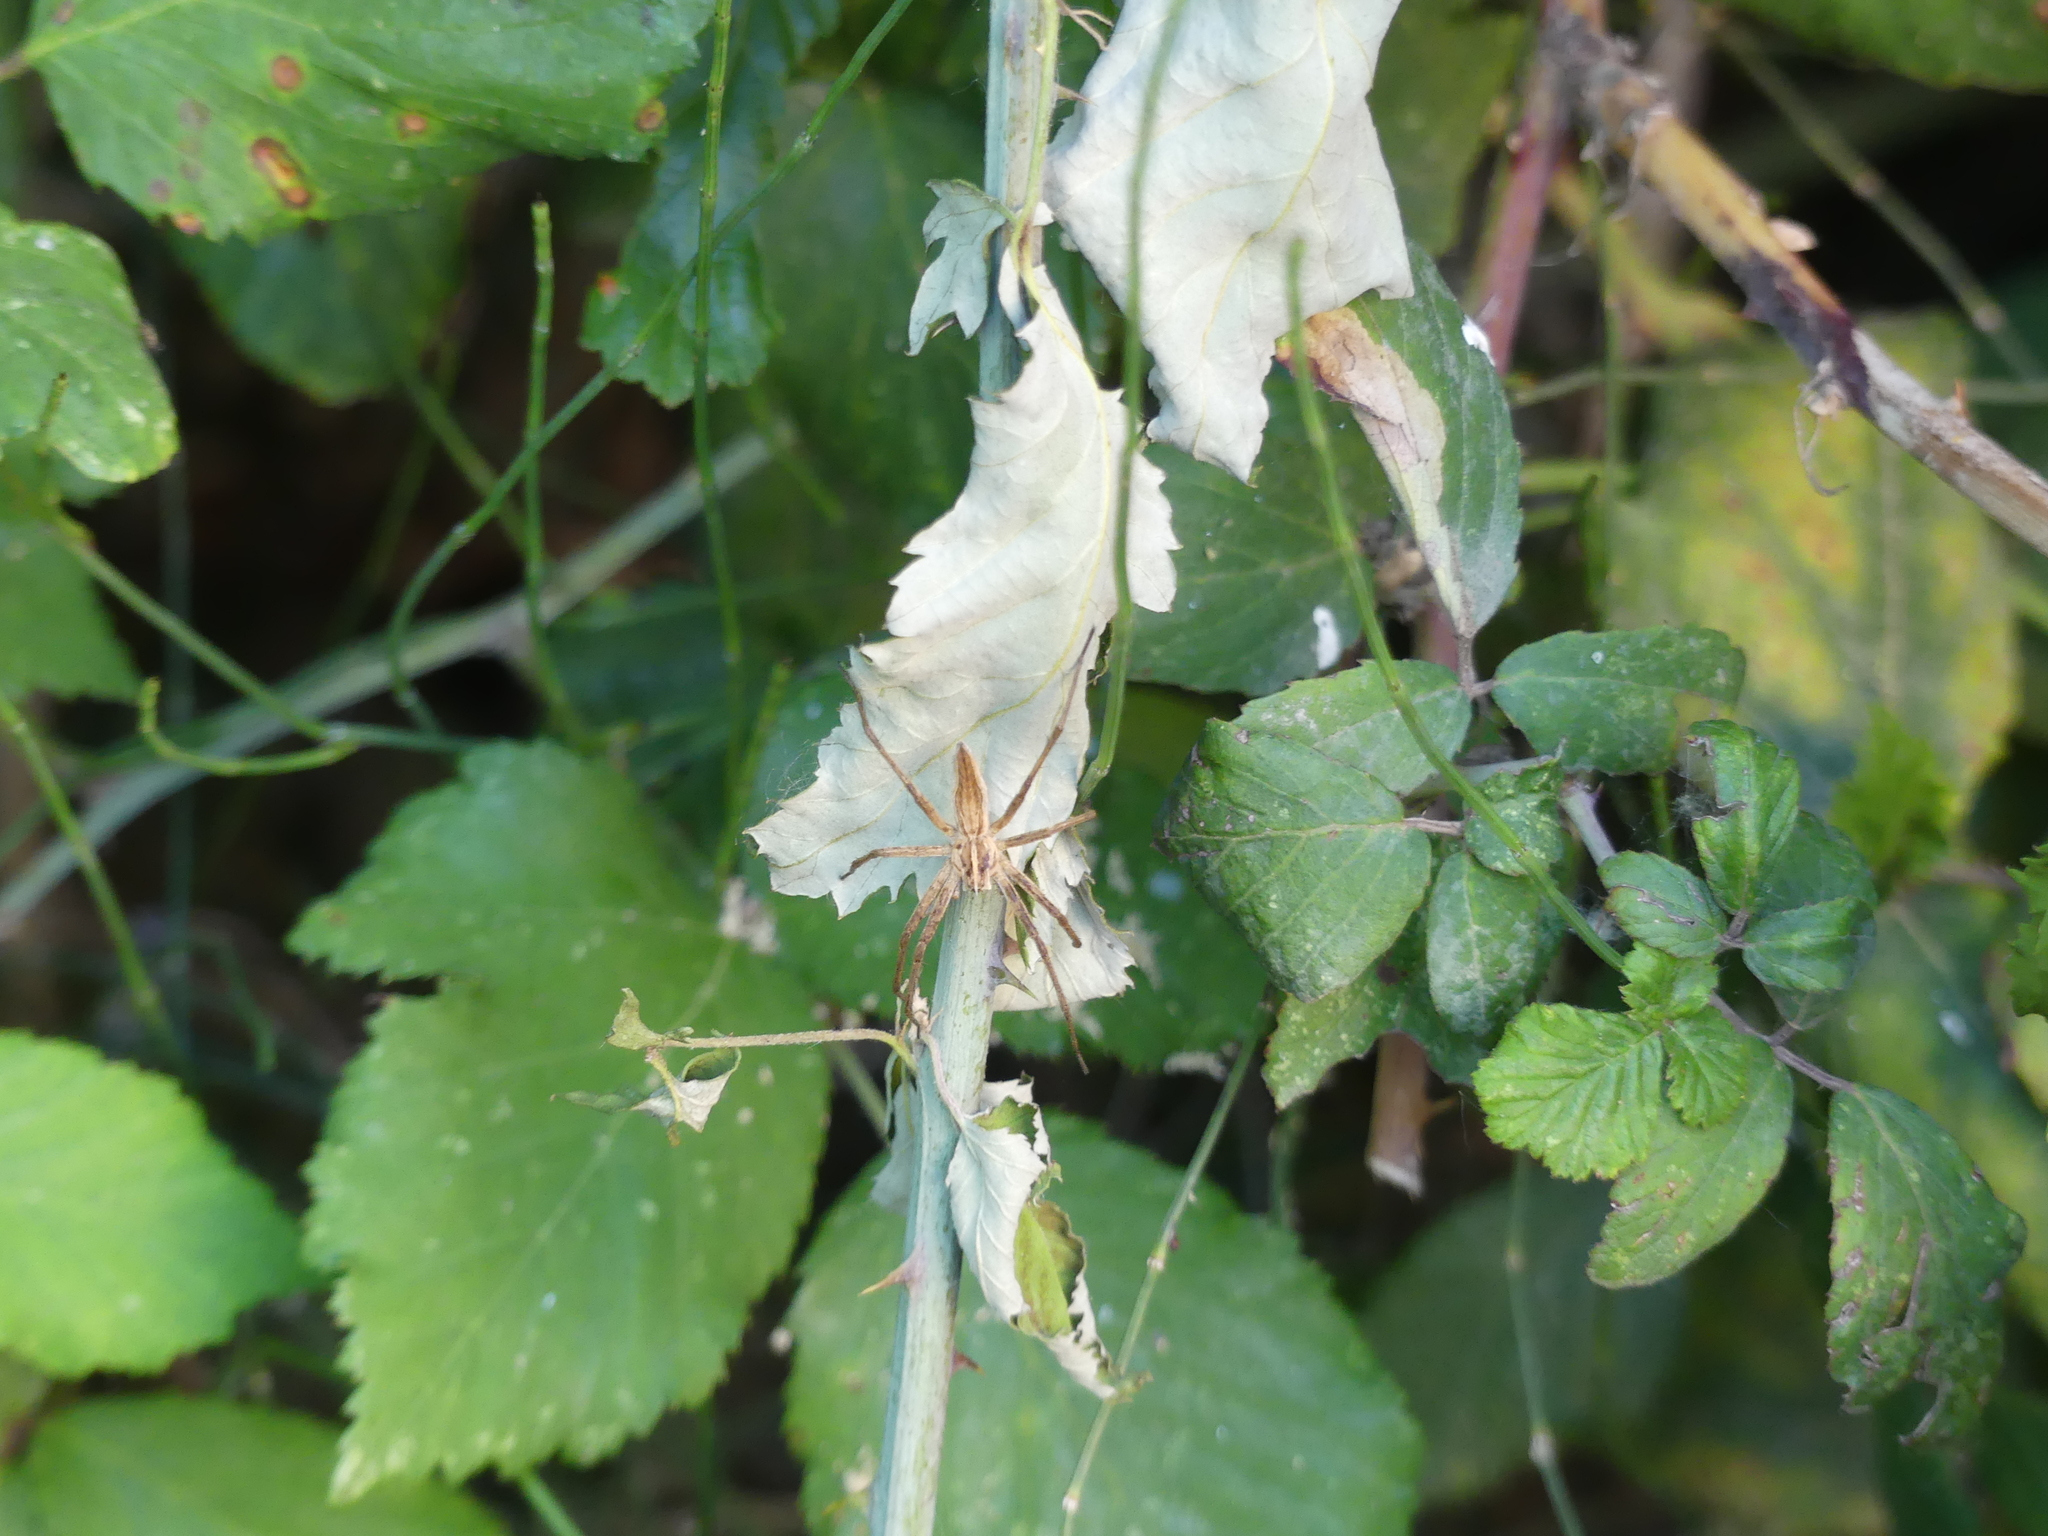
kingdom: Animalia
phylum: Arthropoda
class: Arachnida
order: Araneae
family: Pisauridae
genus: Pisaura
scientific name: Pisaura mirabilis
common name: Tent spider
